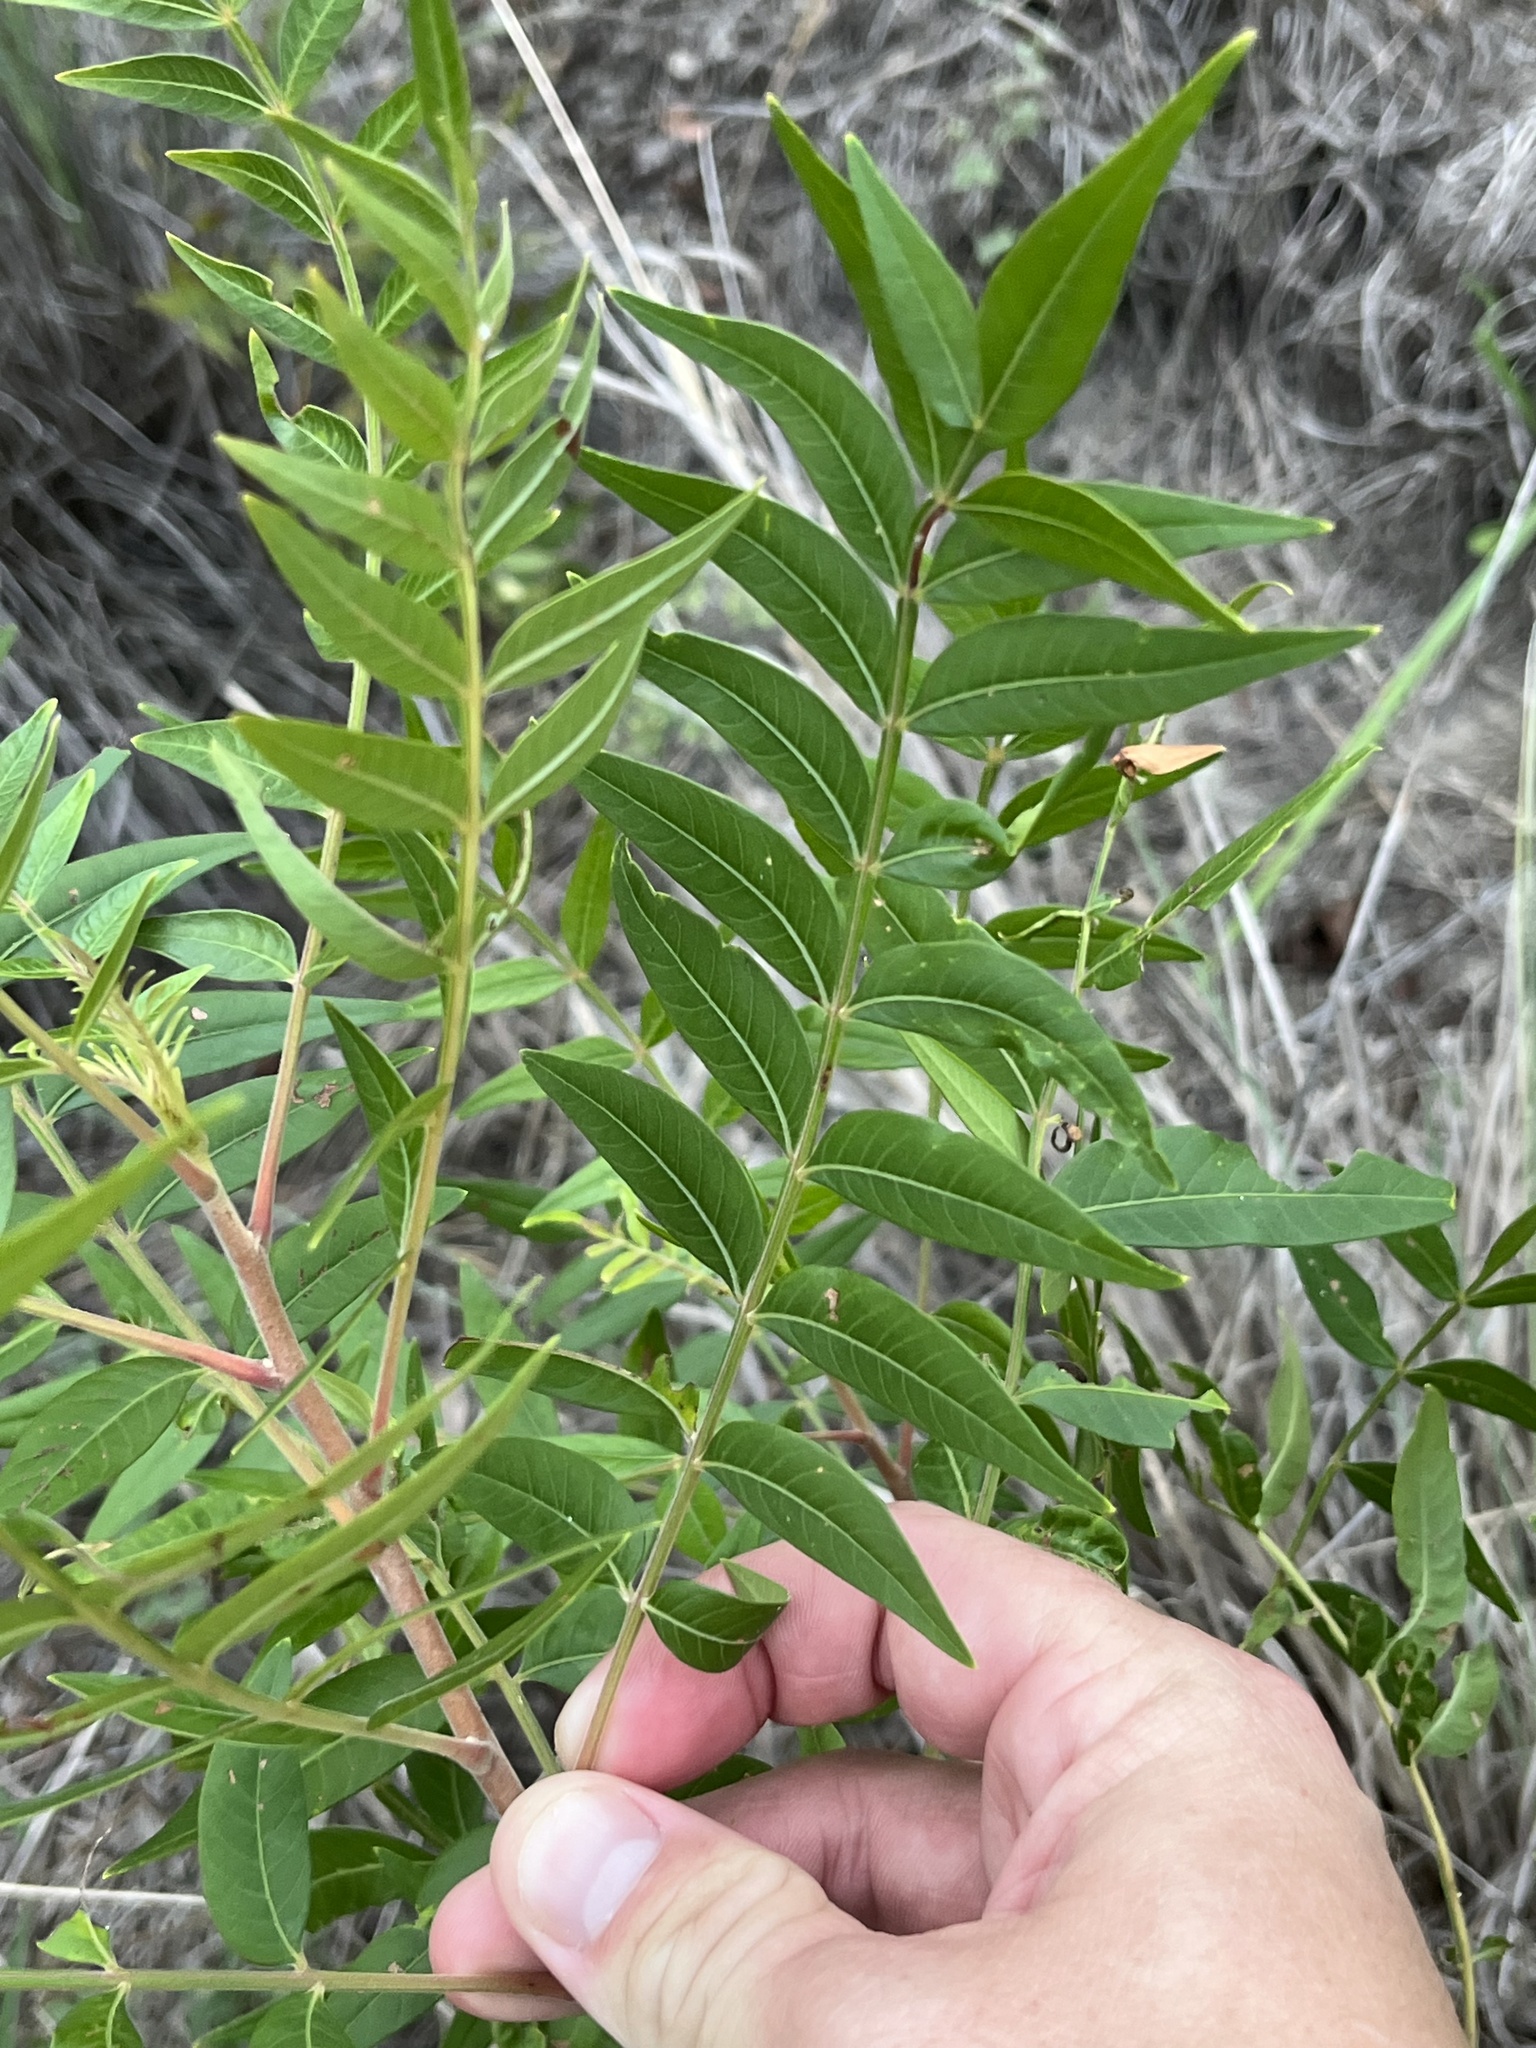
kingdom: Plantae
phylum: Tracheophyta
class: Magnoliopsida
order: Sapindales
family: Anacardiaceae
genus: Rhus
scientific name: Rhus lanceolata
